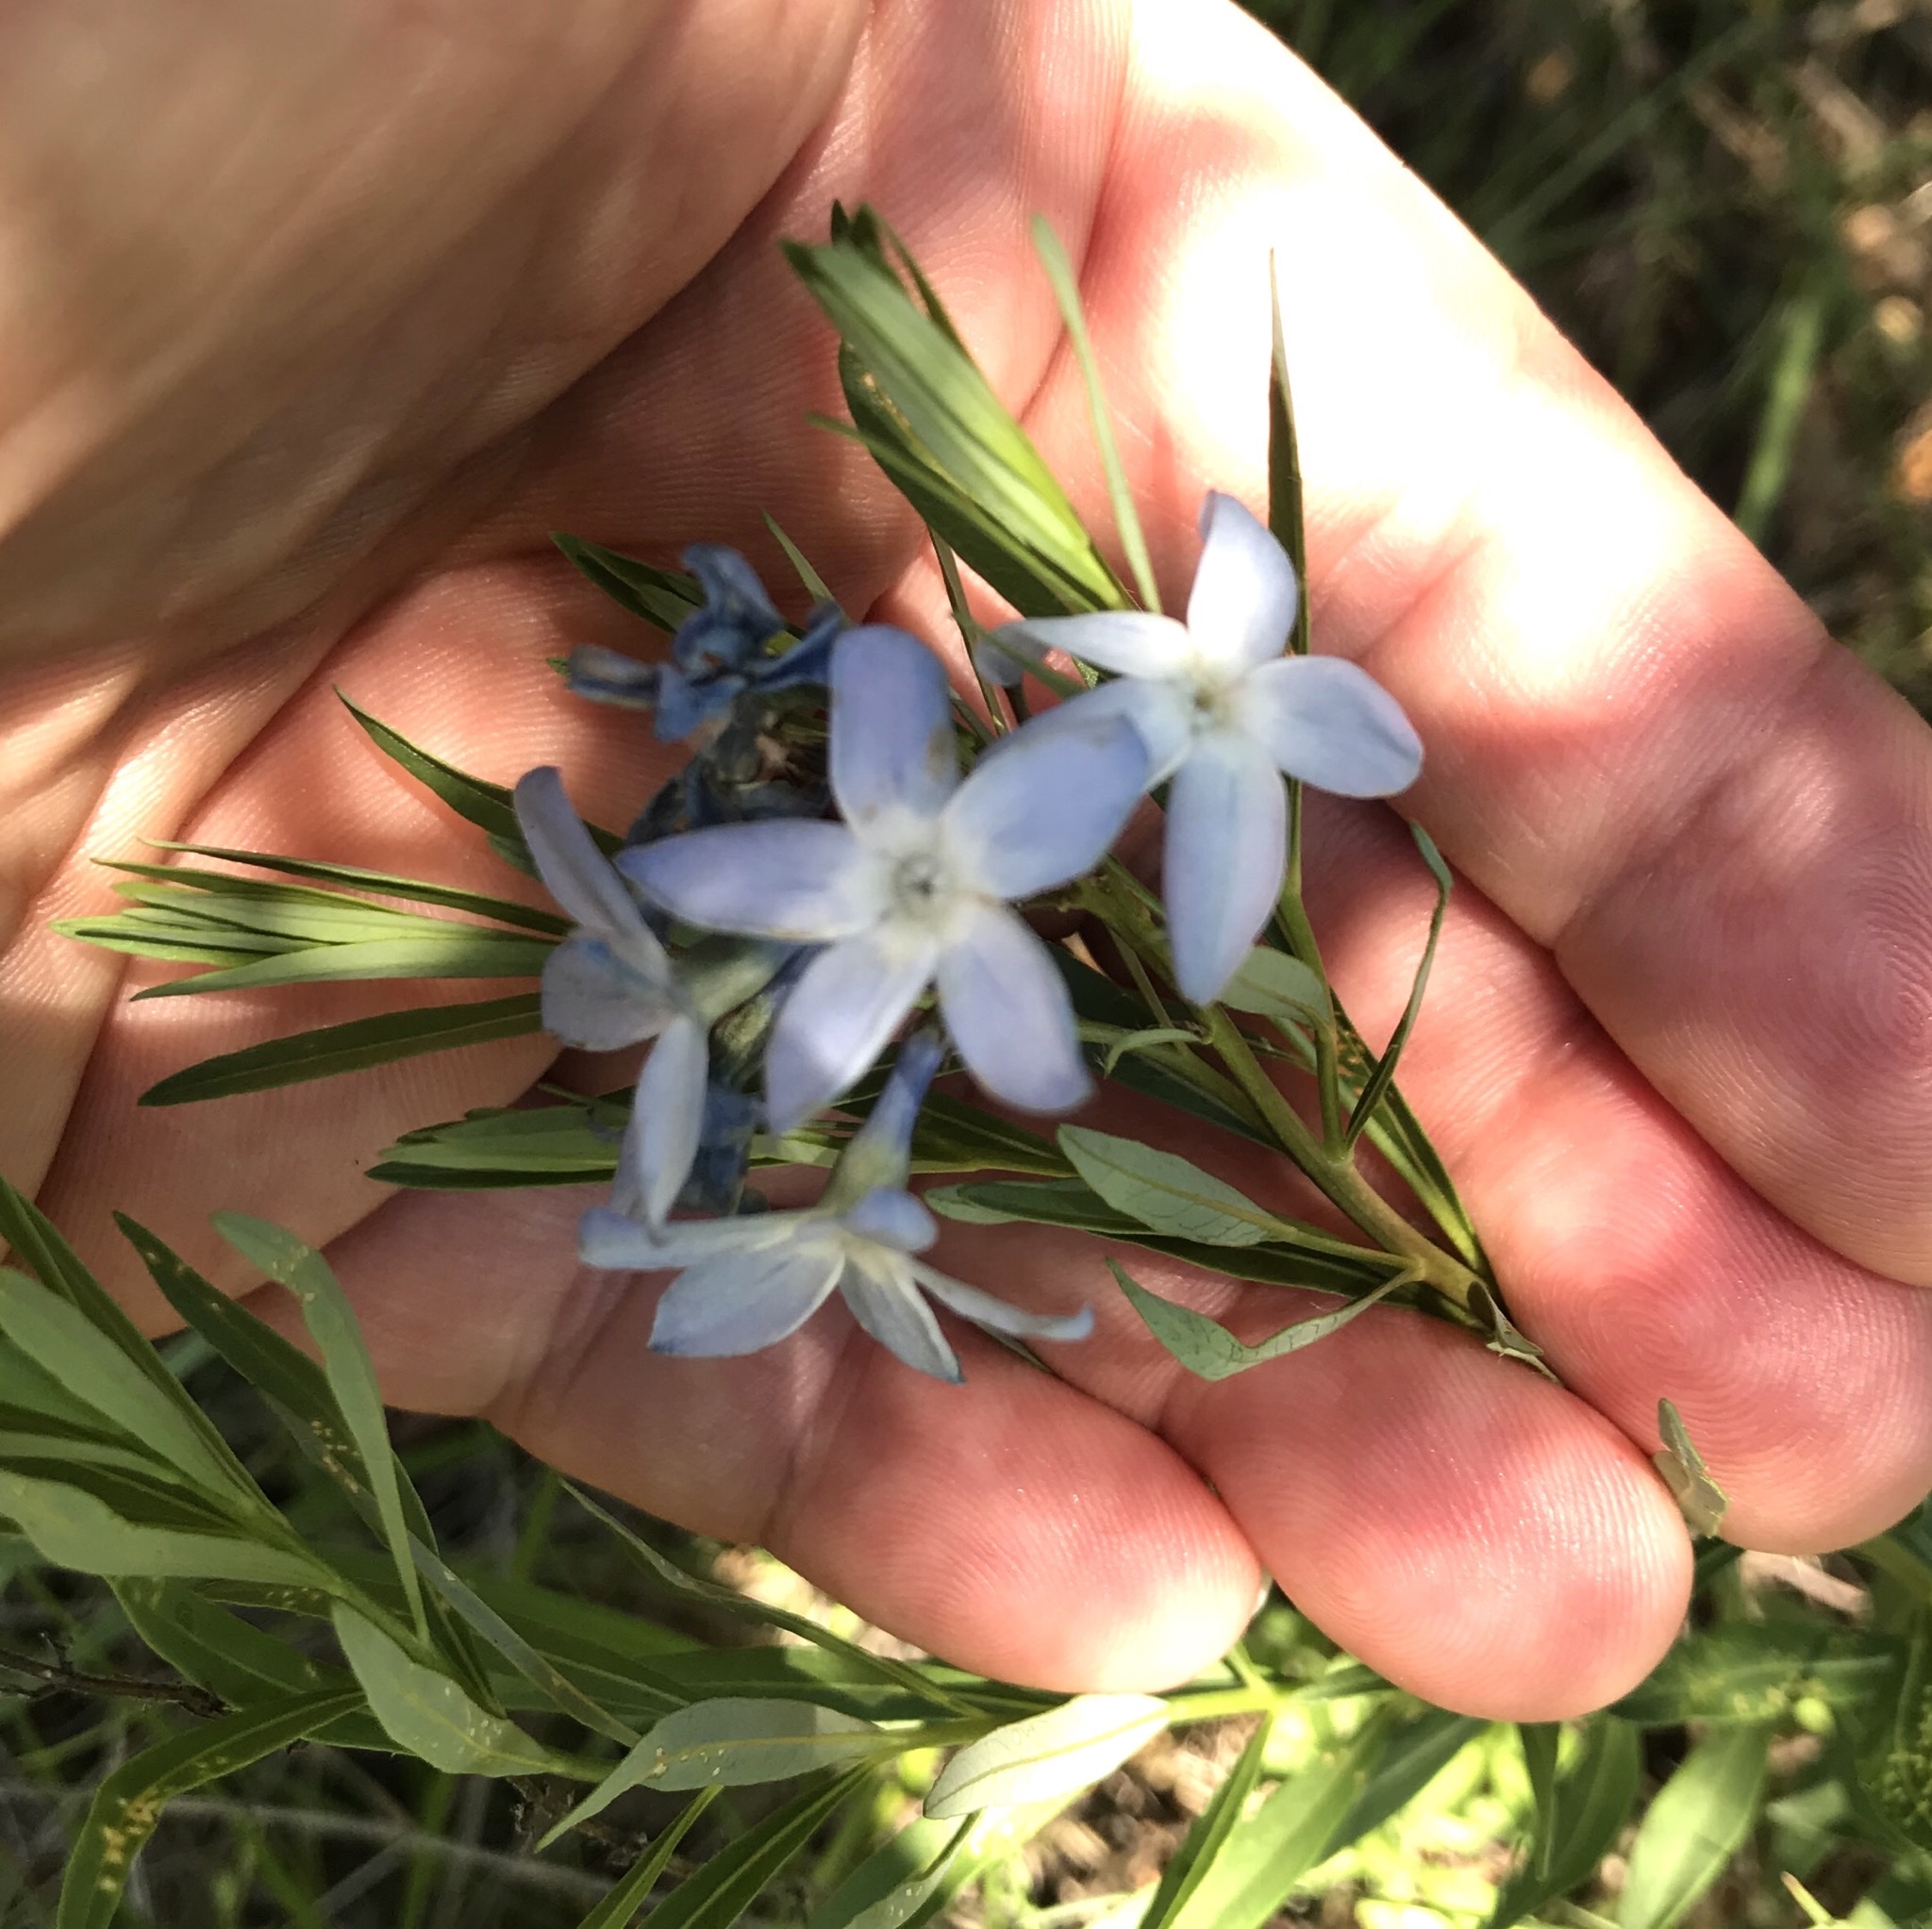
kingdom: Plantae
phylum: Tracheophyta
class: Magnoliopsida
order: Gentianales
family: Apocynaceae
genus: Amsonia
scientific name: Amsonia ciliata
